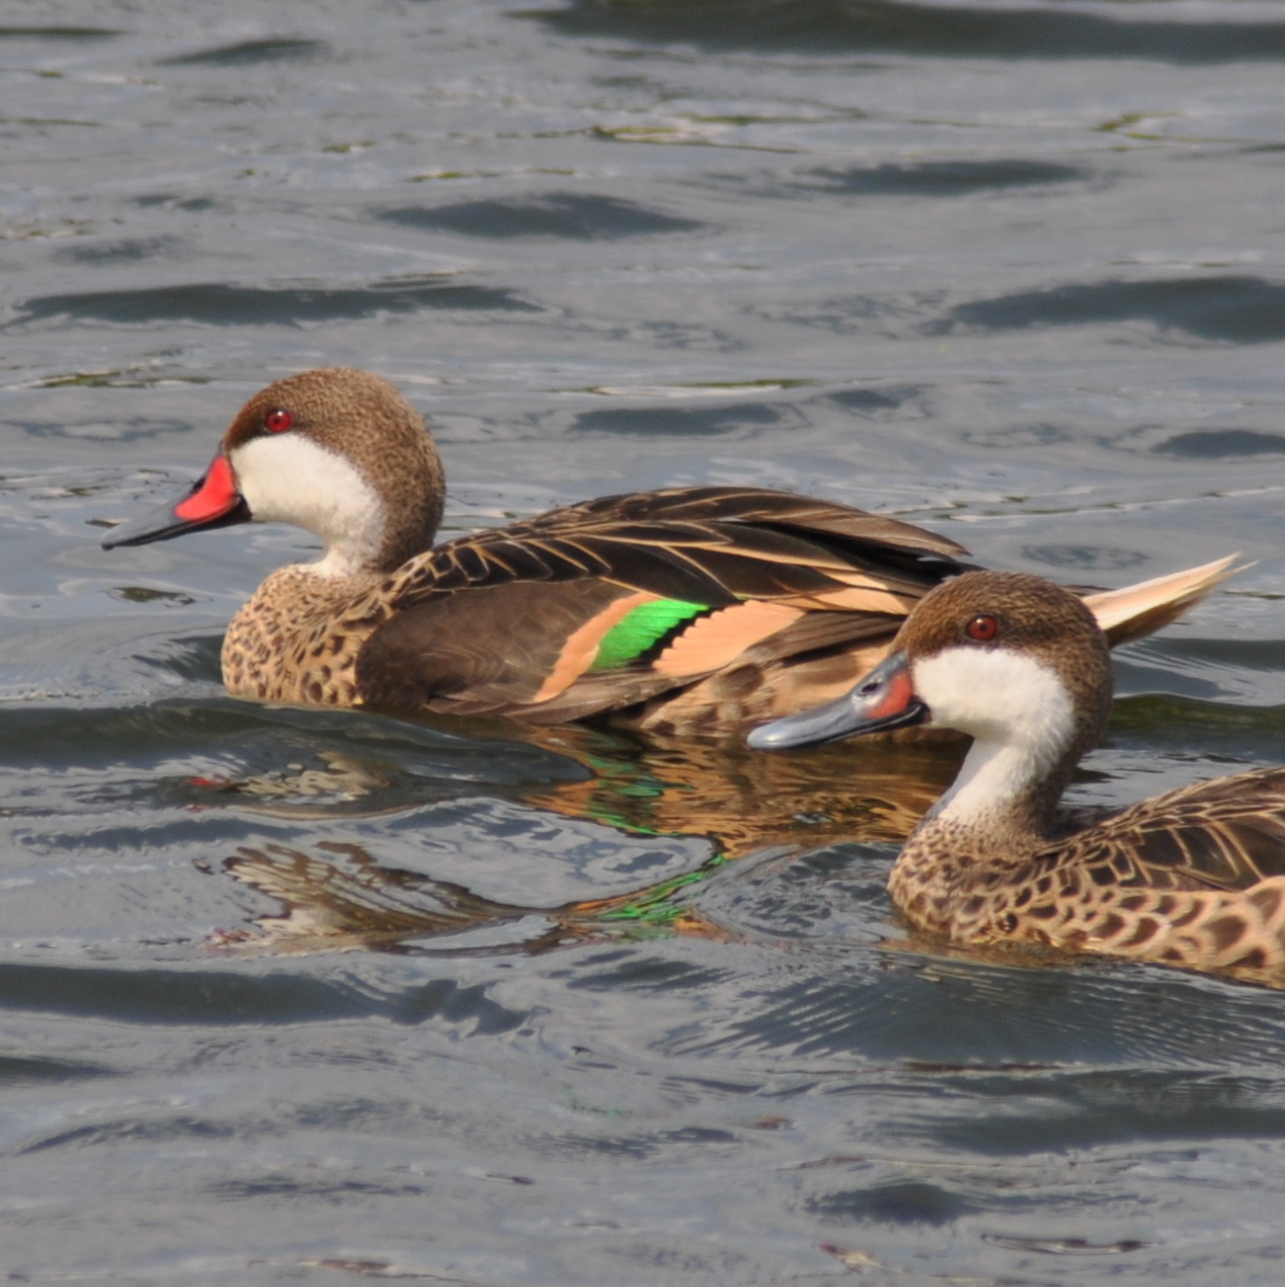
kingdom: Animalia
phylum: Chordata
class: Aves
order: Anseriformes
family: Anatidae
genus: Anas
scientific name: Anas bahamensis
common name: White-cheeked pintail
